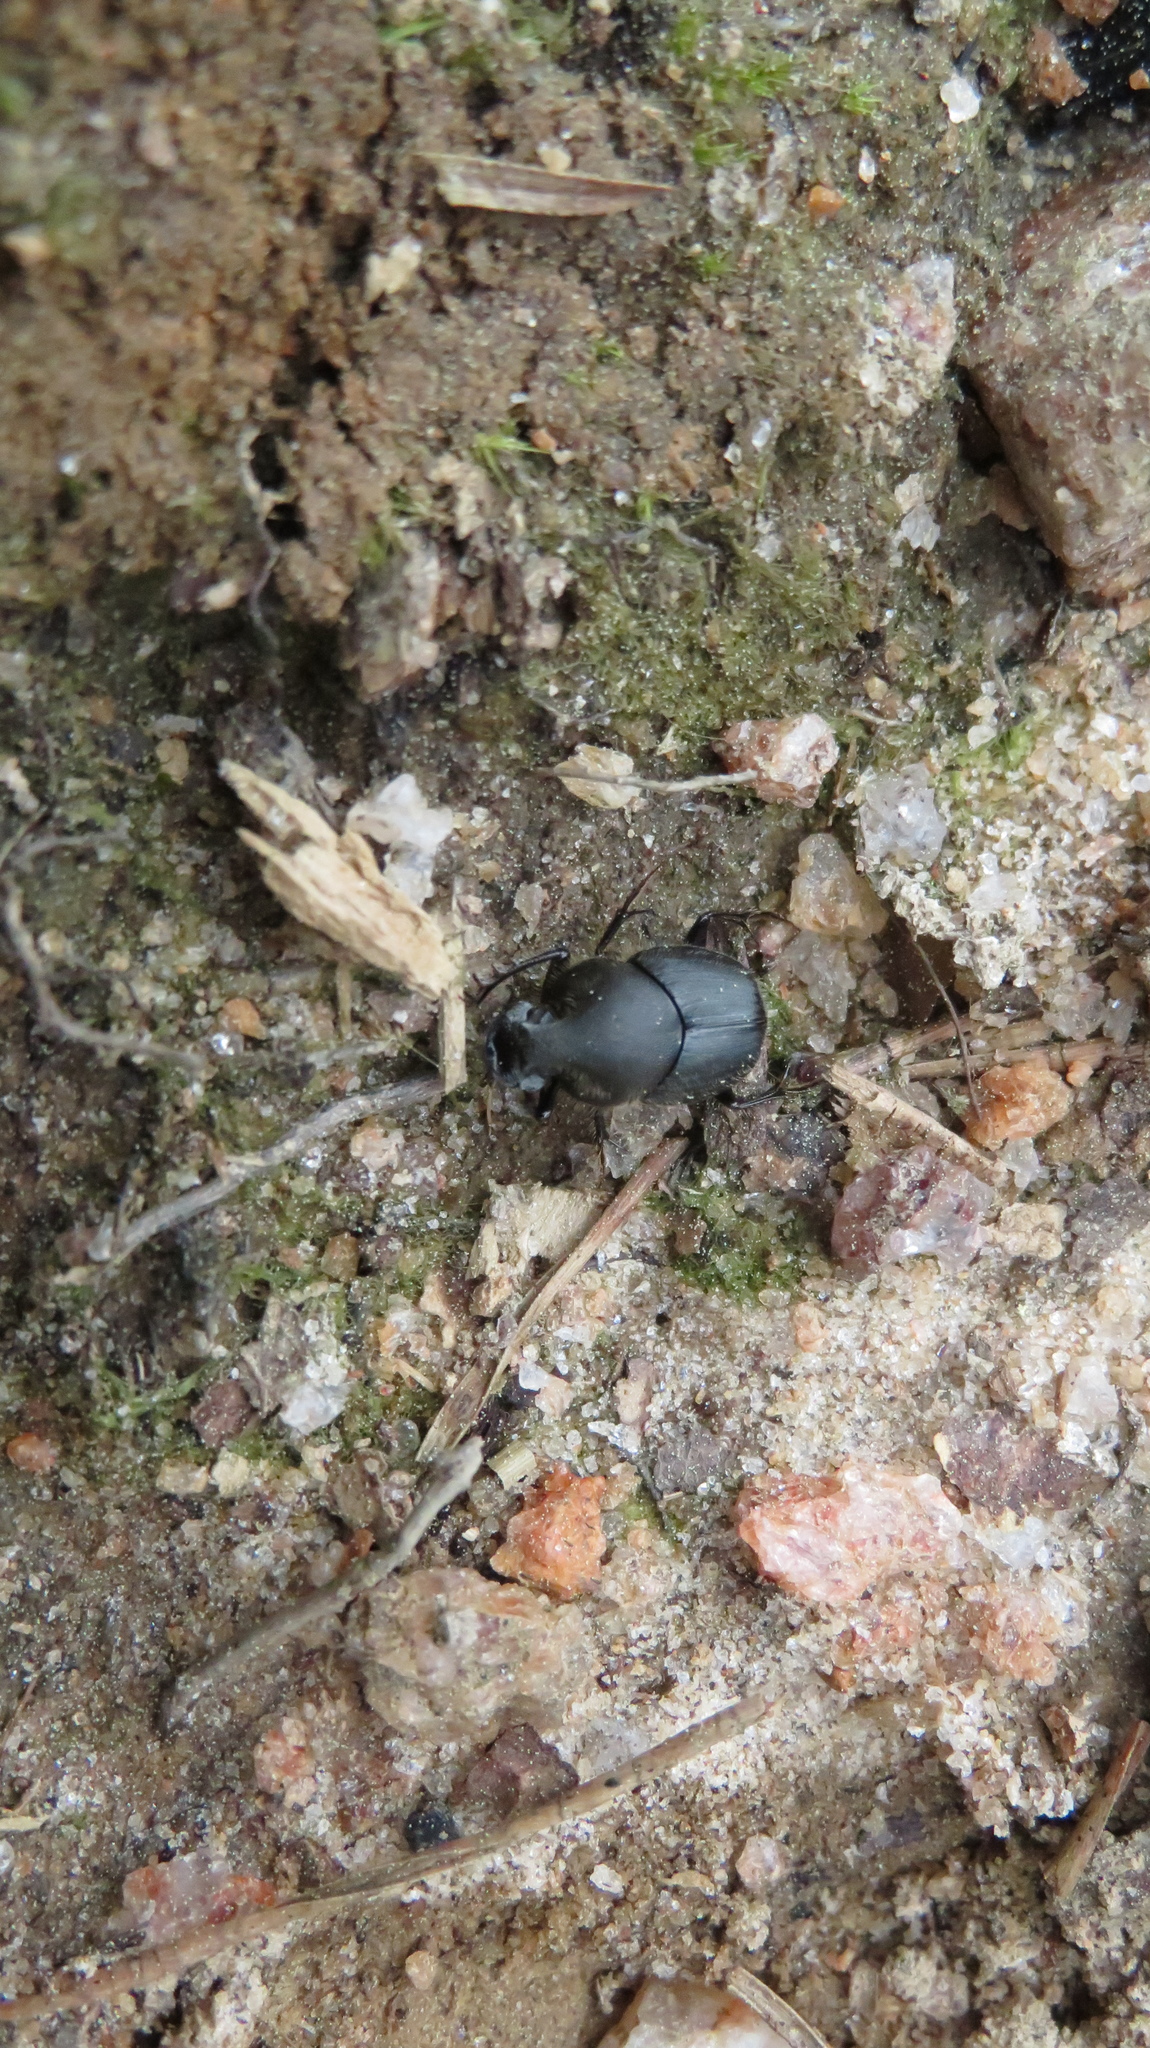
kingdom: Animalia
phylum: Arthropoda
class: Insecta
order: Coleoptera
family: Scarabaeidae
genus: Onthophagus
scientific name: Onthophagus hecate
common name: Scooped scarab
